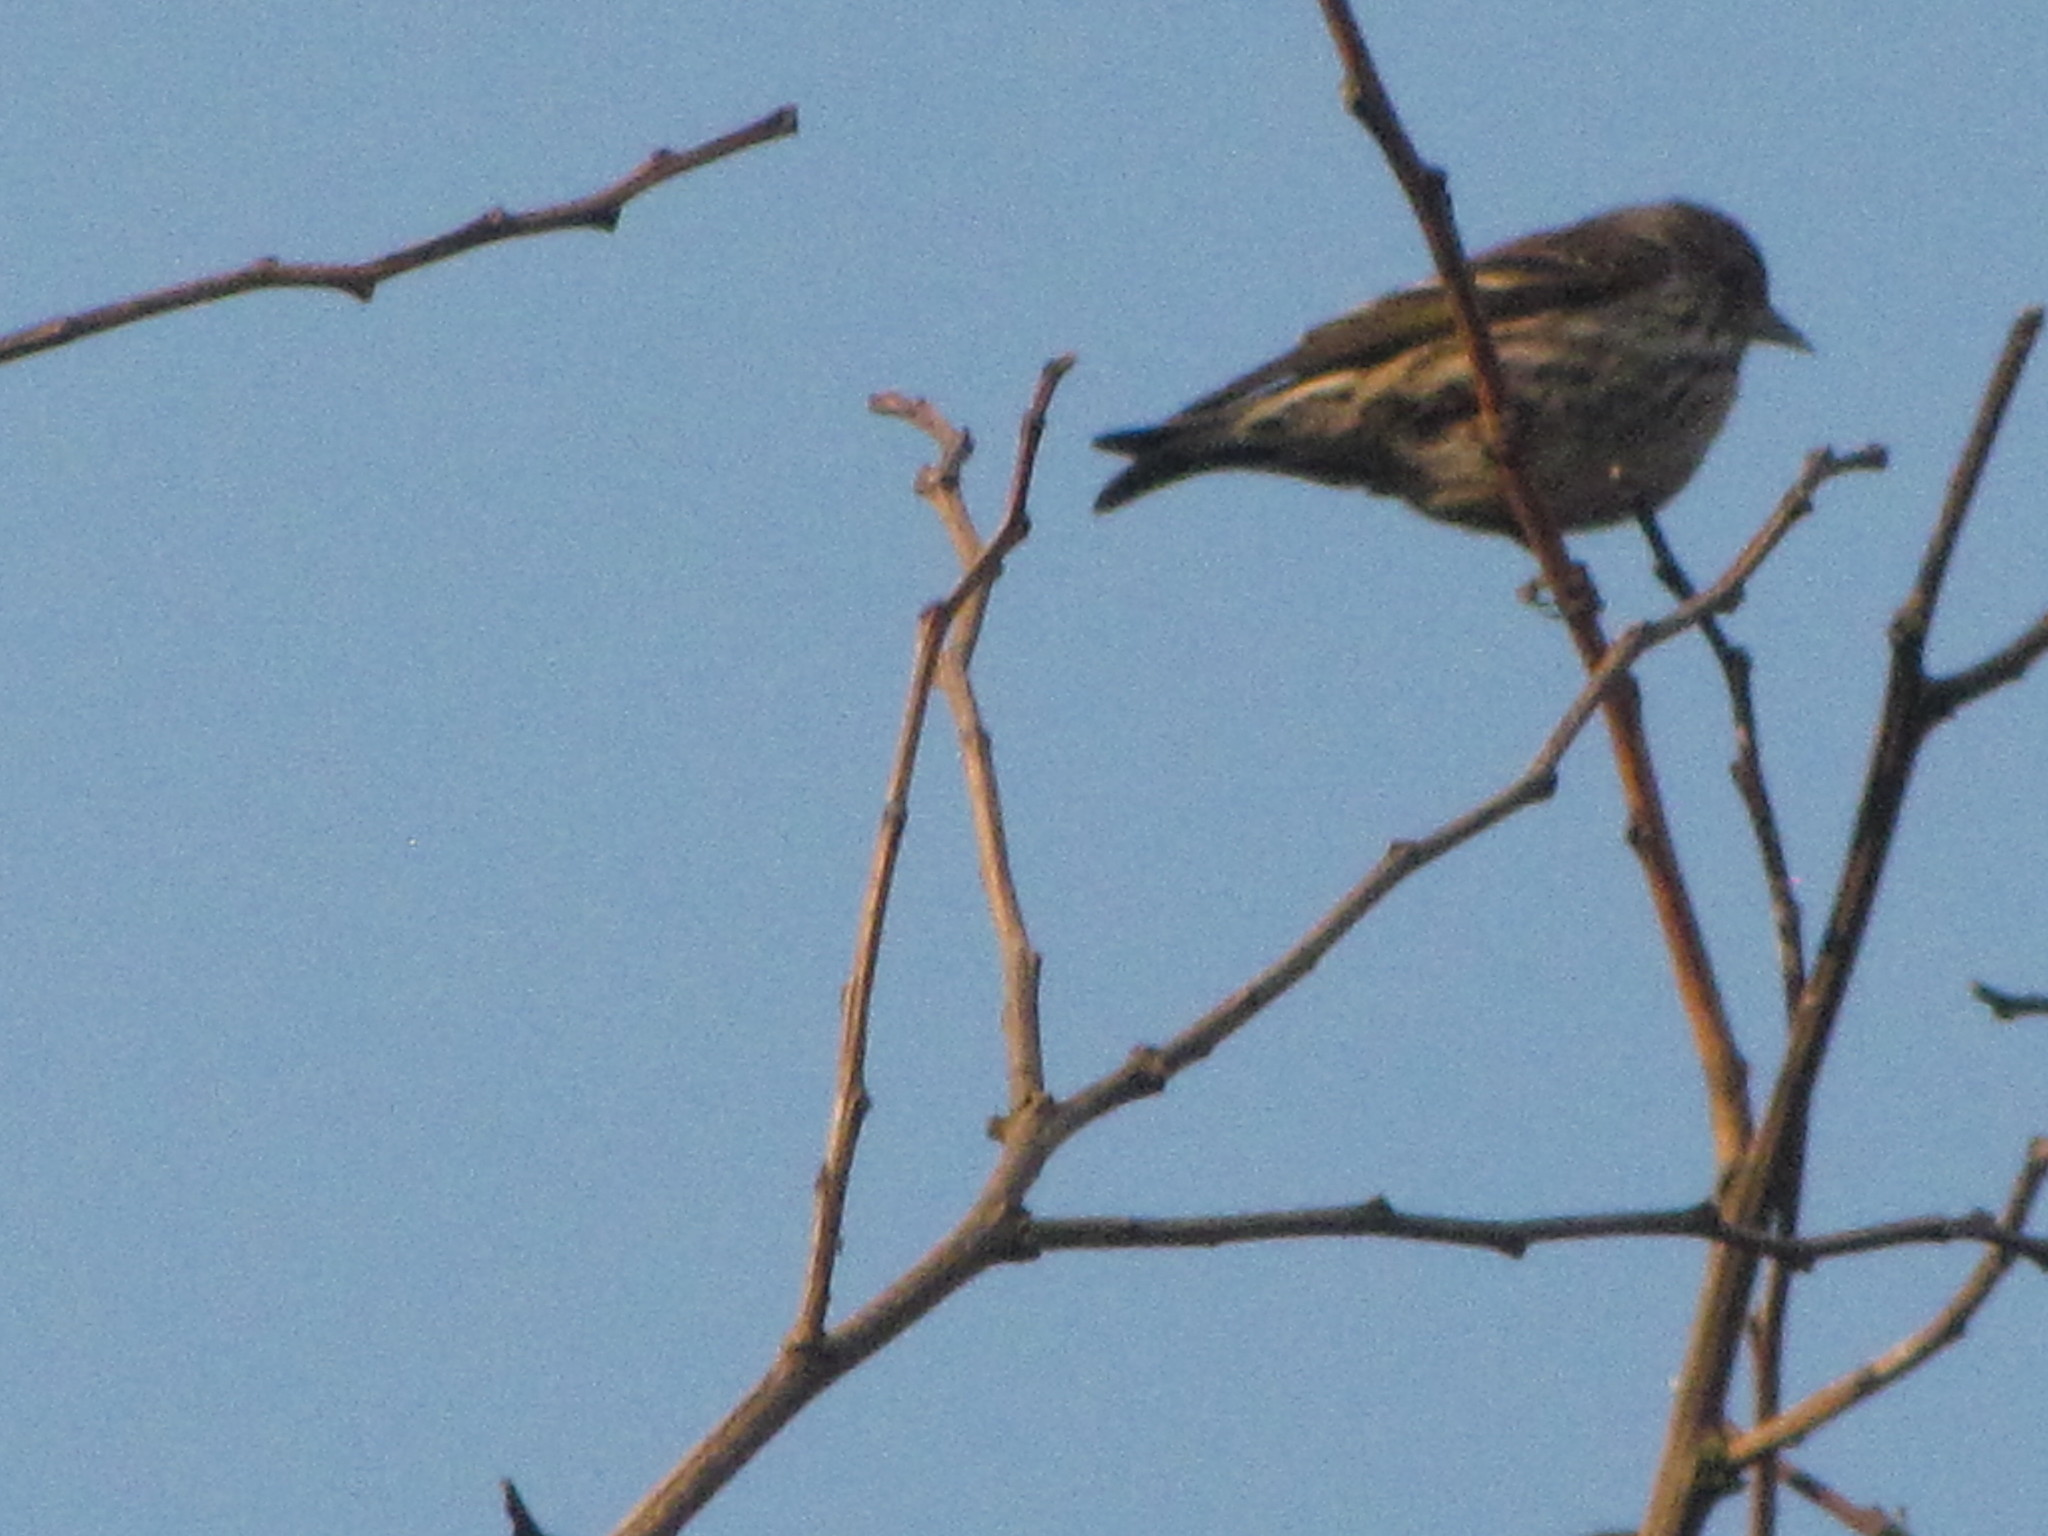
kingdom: Animalia
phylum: Chordata
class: Aves
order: Passeriformes
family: Fringillidae
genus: Spinus
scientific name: Spinus pinus
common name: Pine siskin
